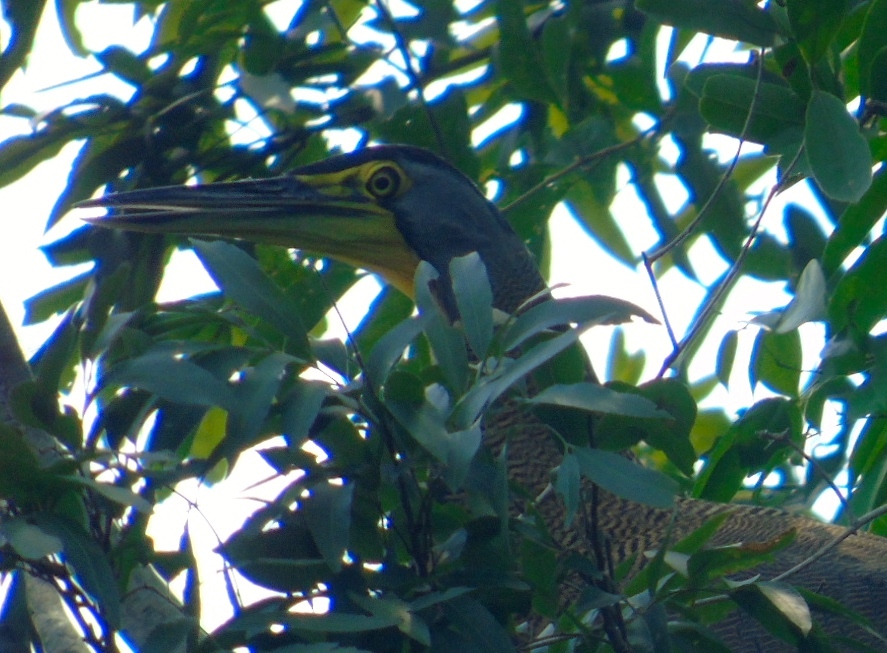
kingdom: Animalia
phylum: Chordata
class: Aves
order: Pelecaniformes
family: Ardeidae
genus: Tigrisoma
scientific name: Tigrisoma mexicanum
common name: Bare-throated tiger-heron
